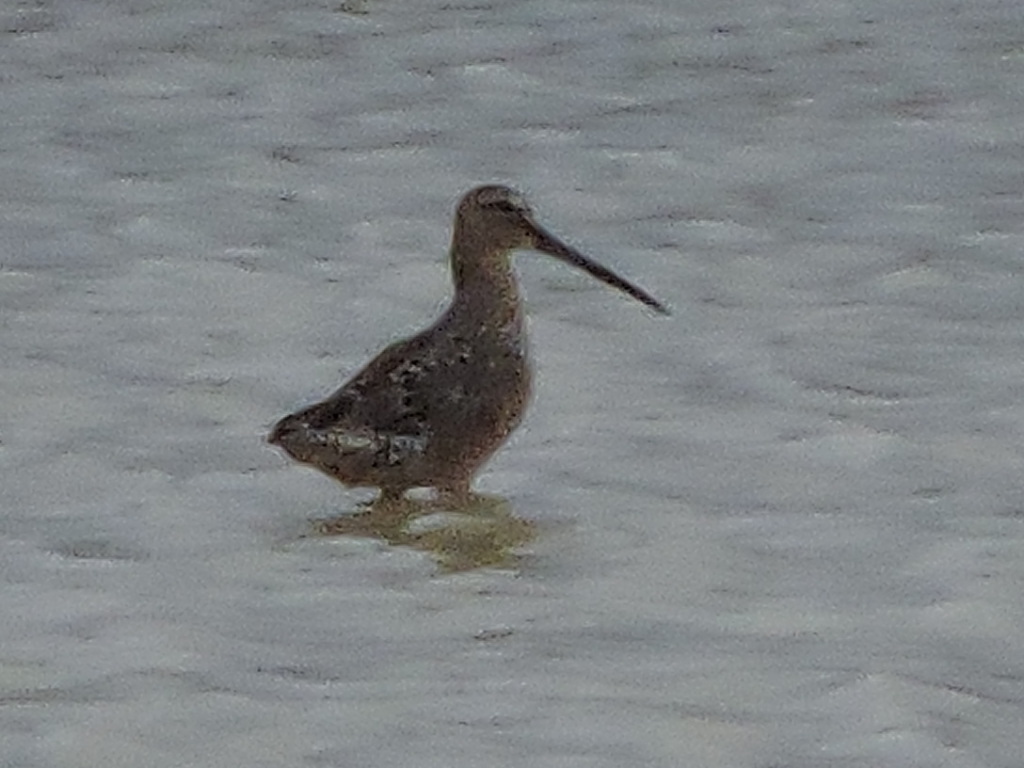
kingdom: Animalia
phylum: Chordata
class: Aves
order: Charadriiformes
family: Scolopacidae
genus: Limnodromus
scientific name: Limnodromus scolopaceus
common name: Long-billed dowitcher
